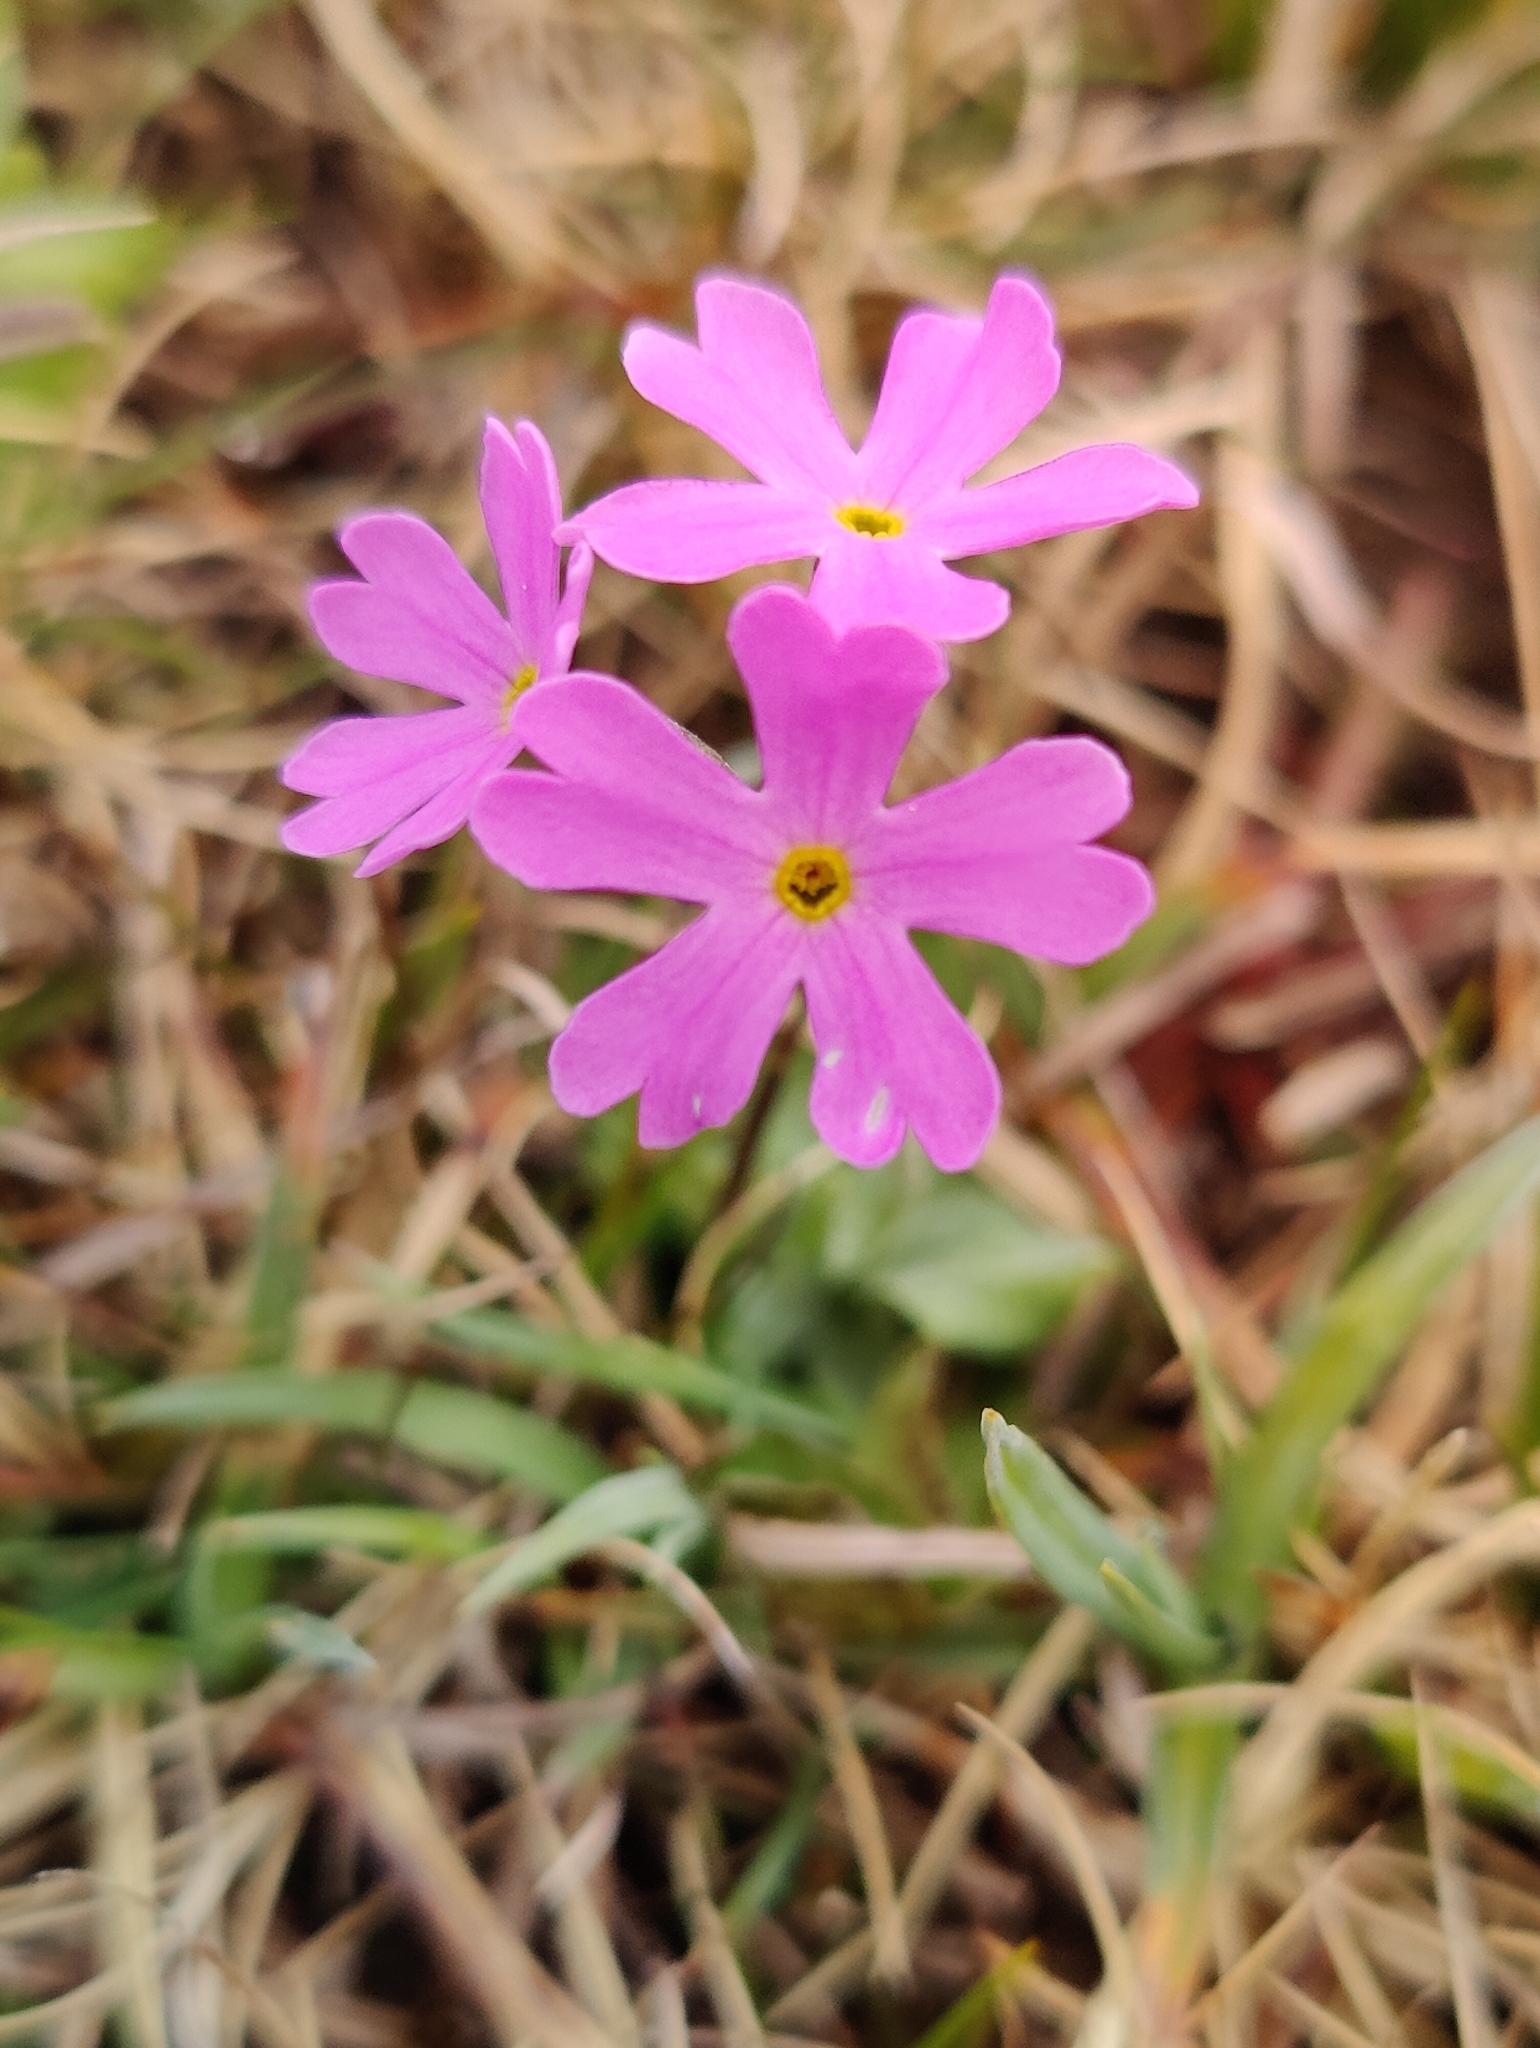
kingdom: Plantae
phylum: Tracheophyta
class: Magnoliopsida
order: Ericales
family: Primulaceae
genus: Primula
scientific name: Primula farinosa
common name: Bird's-eye primrose
